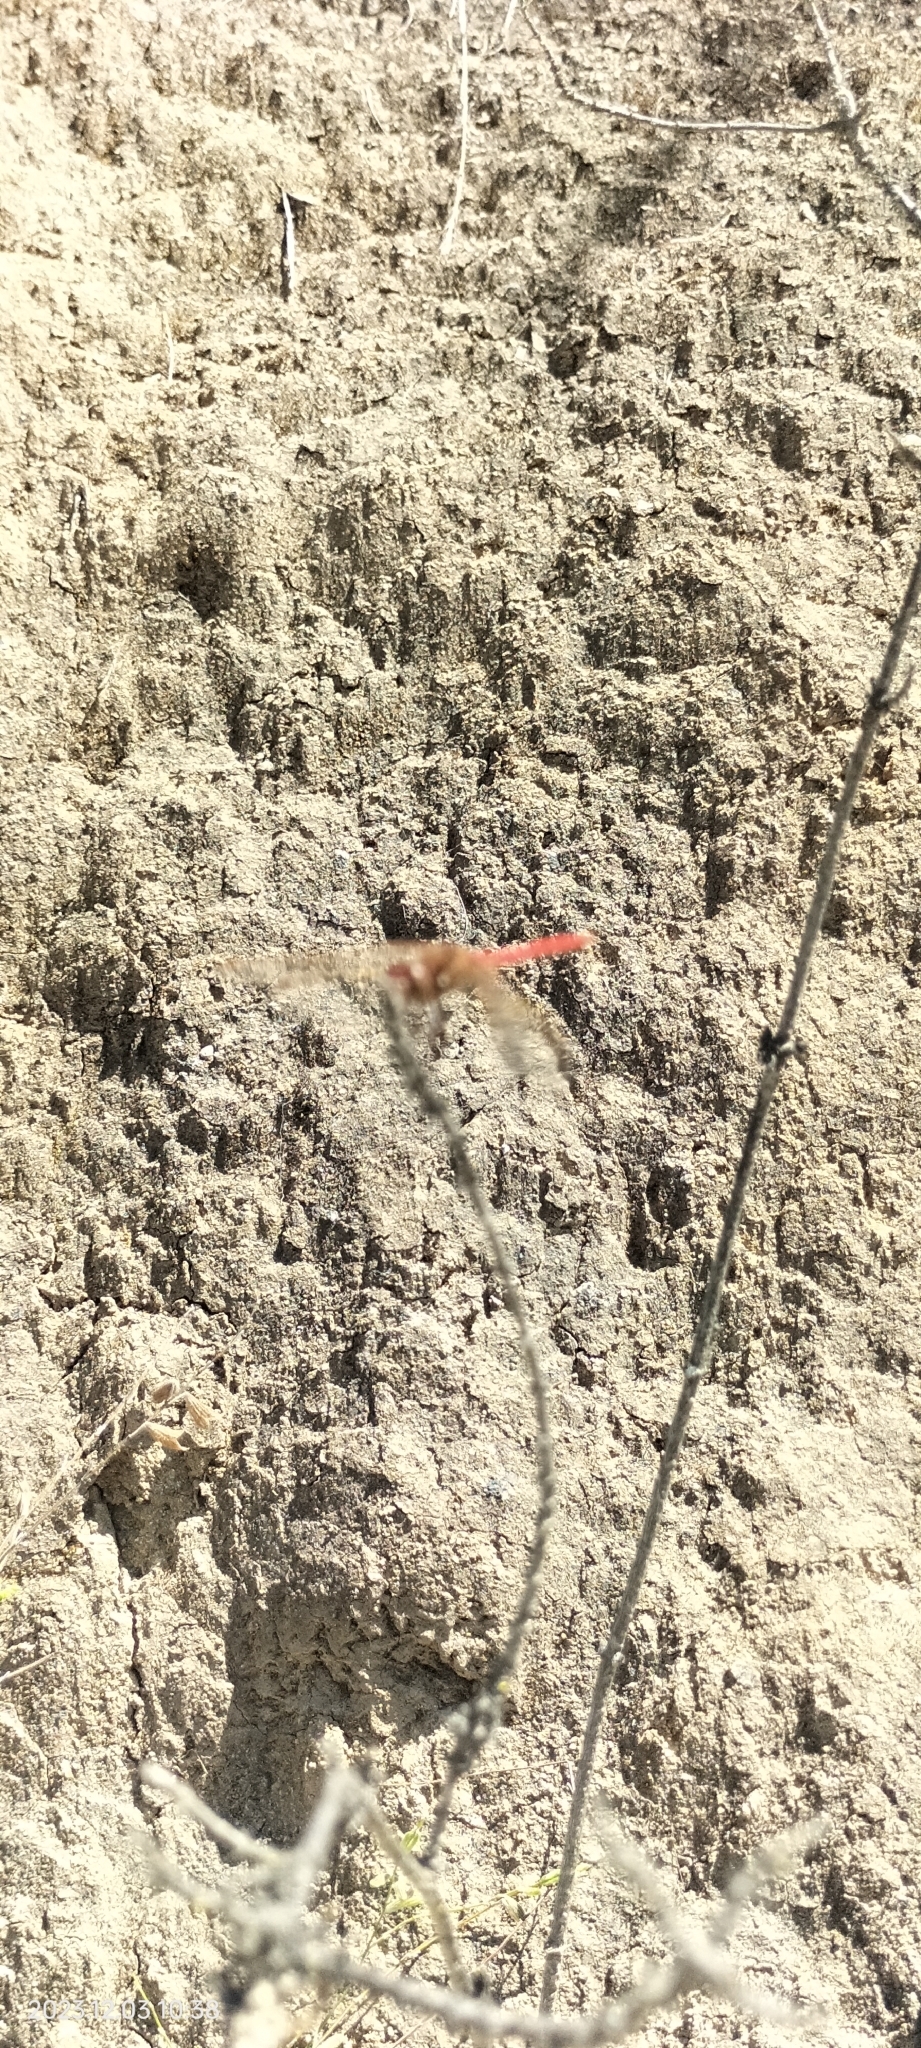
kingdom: Animalia
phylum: Arthropoda
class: Insecta
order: Odonata
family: Libellulidae
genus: Sympetrum
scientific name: Sympetrum gilvum
